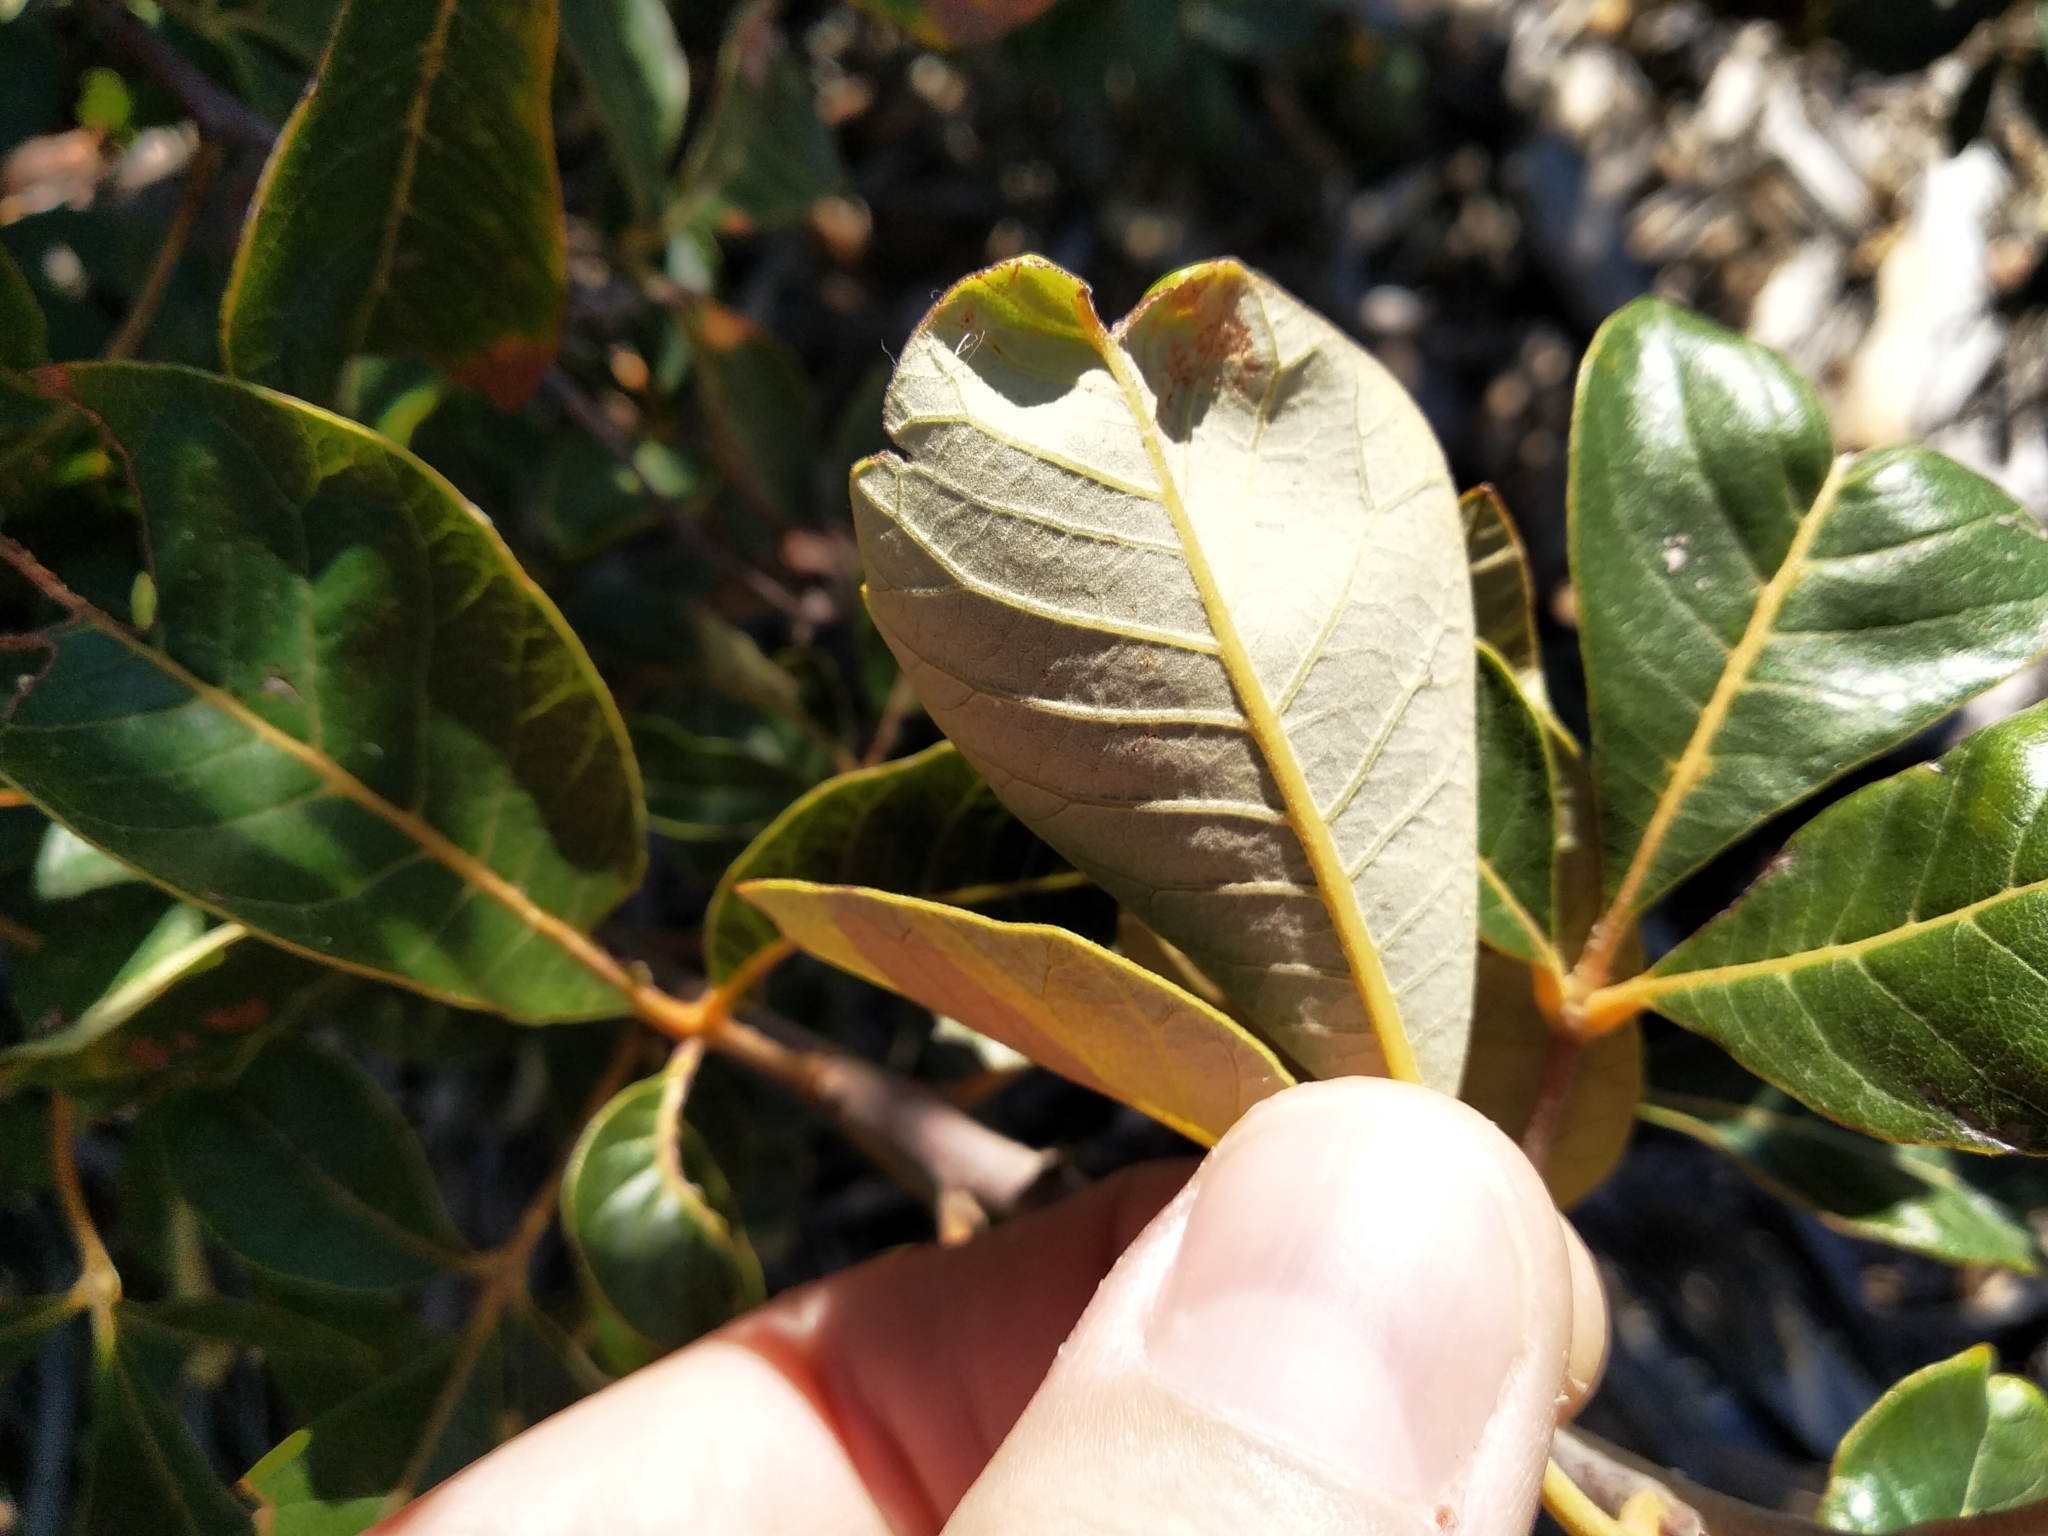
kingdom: Plantae
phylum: Tracheophyta
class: Magnoliopsida
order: Sapindales
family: Anacardiaceae
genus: Searsia
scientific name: Searsia tomentosa
